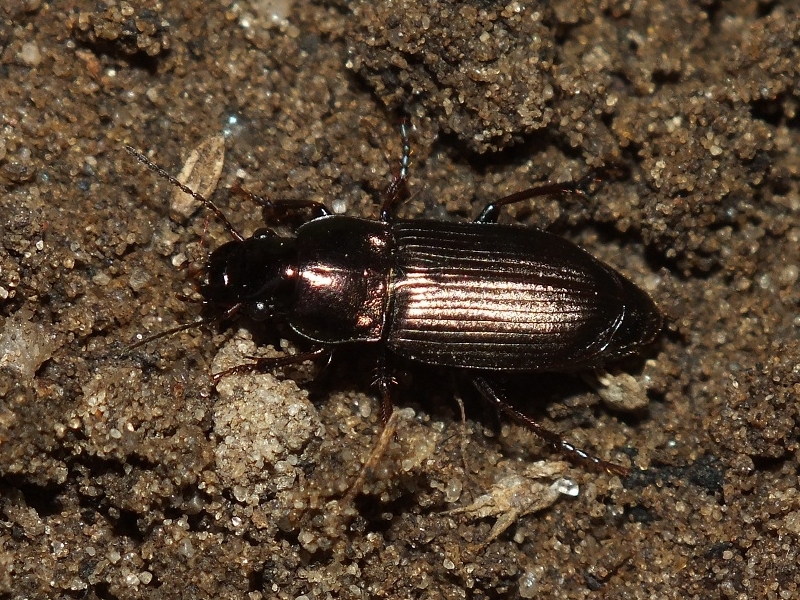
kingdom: Animalia
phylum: Arthropoda
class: Insecta
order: Coleoptera
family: Carabidae
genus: Harpalus
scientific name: Harpalus distinguendus
